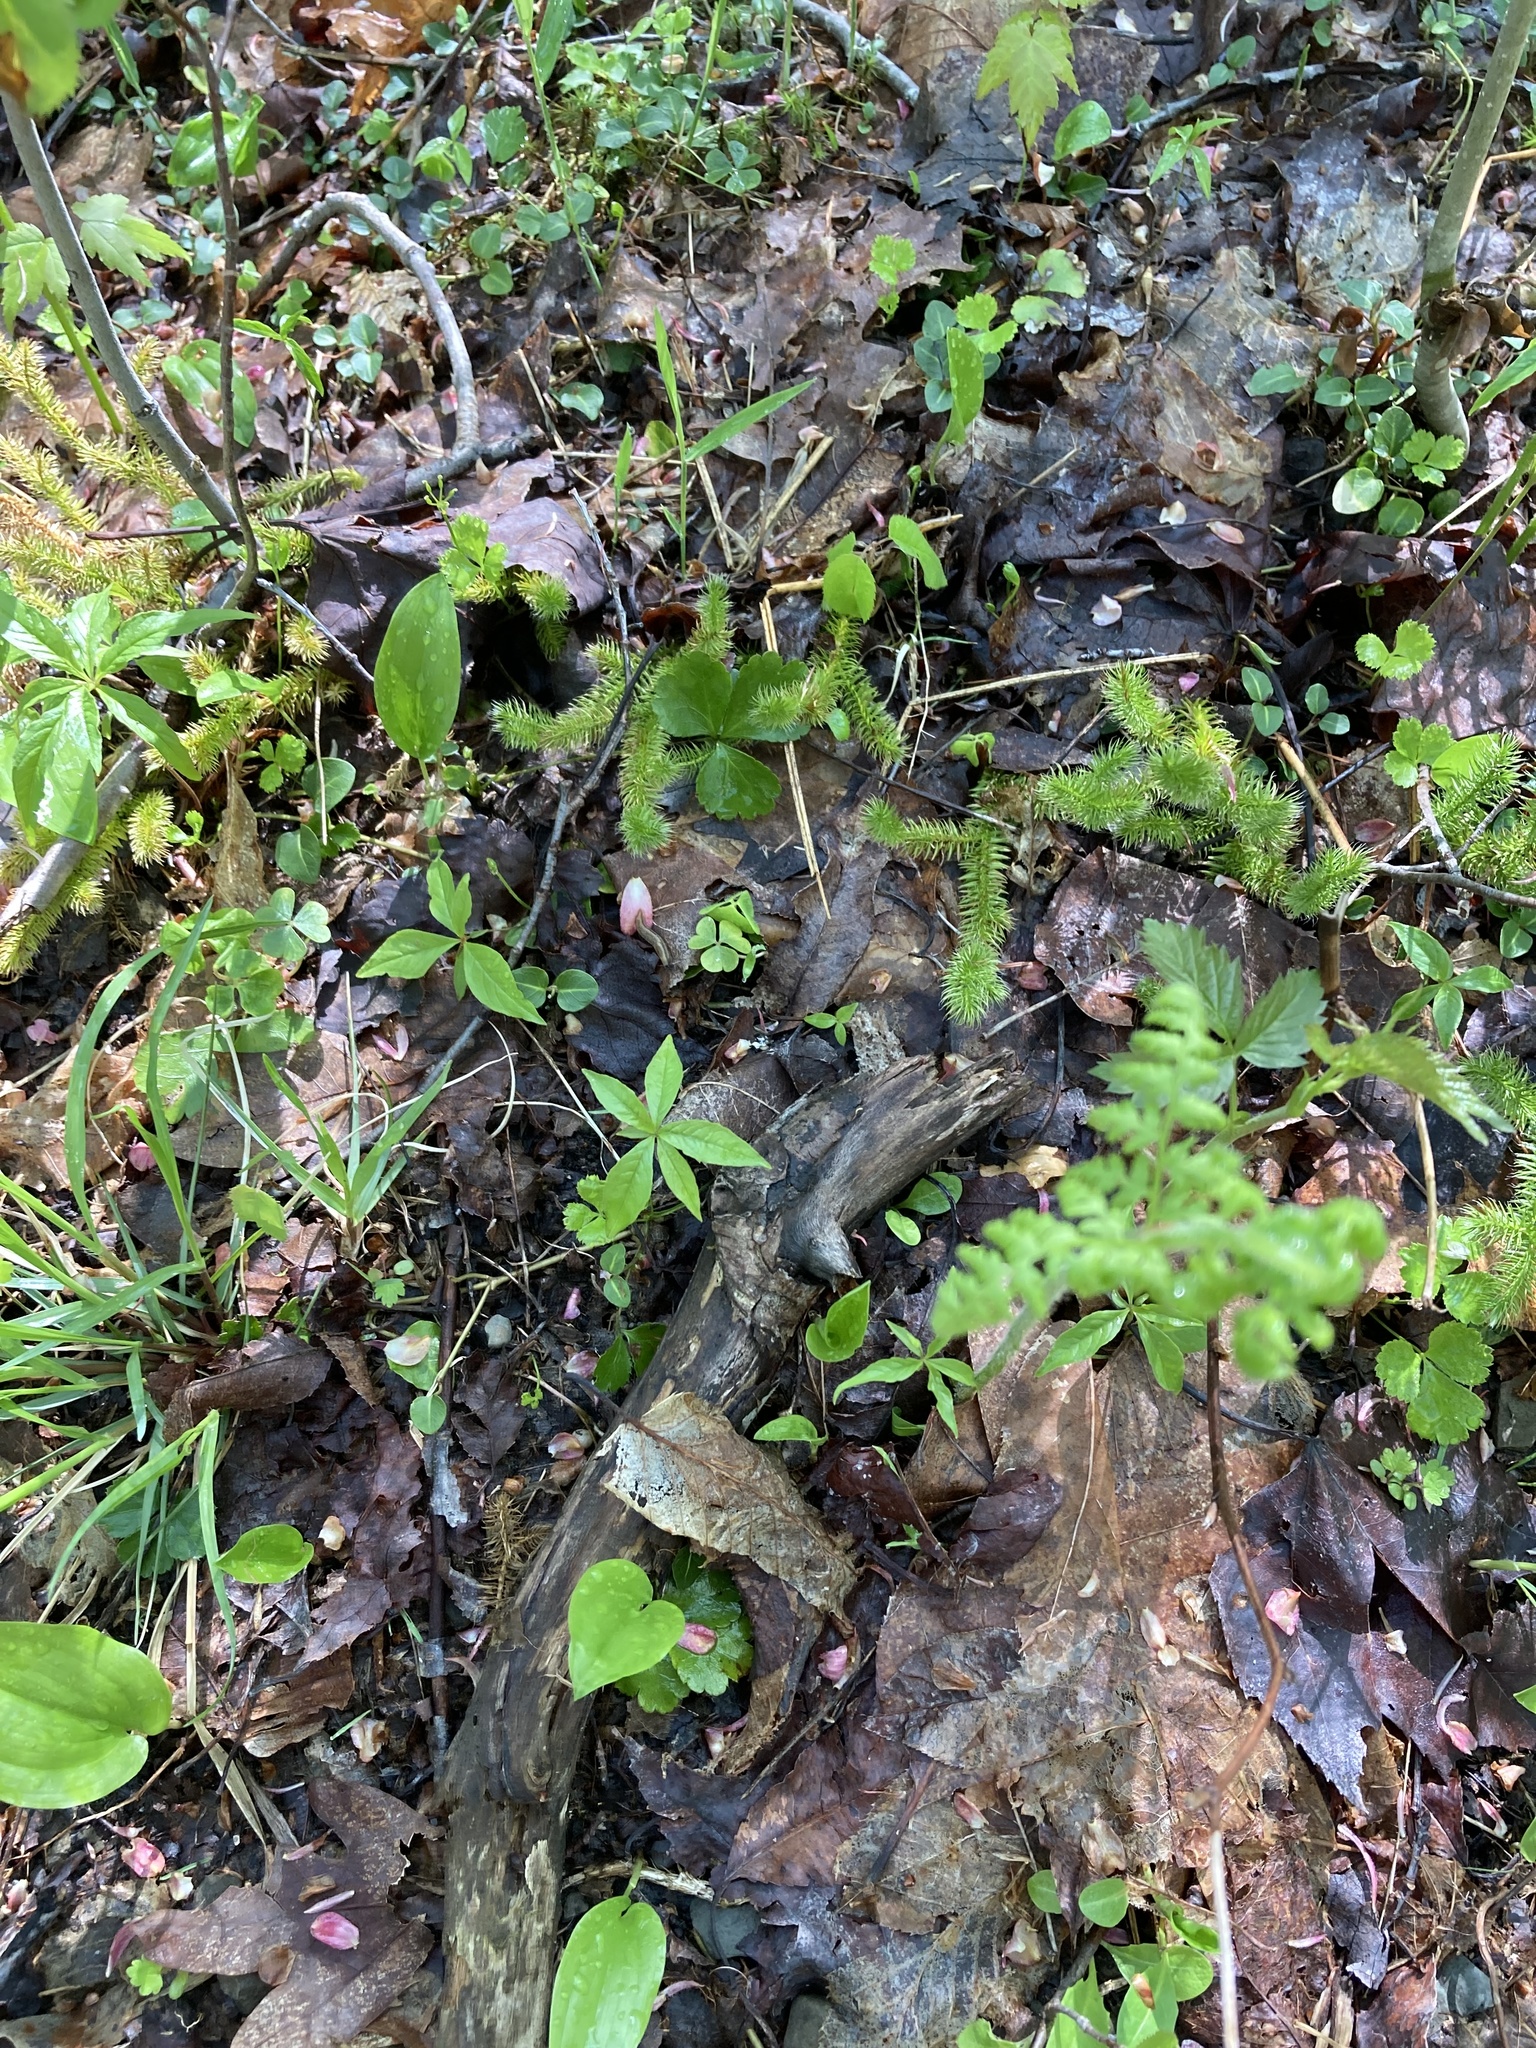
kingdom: Plantae
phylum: Tracheophyta
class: Magnoliopsida
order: Oxalidales
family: Oxalidaceae
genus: Oxalis
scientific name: Oxalis montana
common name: American wood-sorrel
